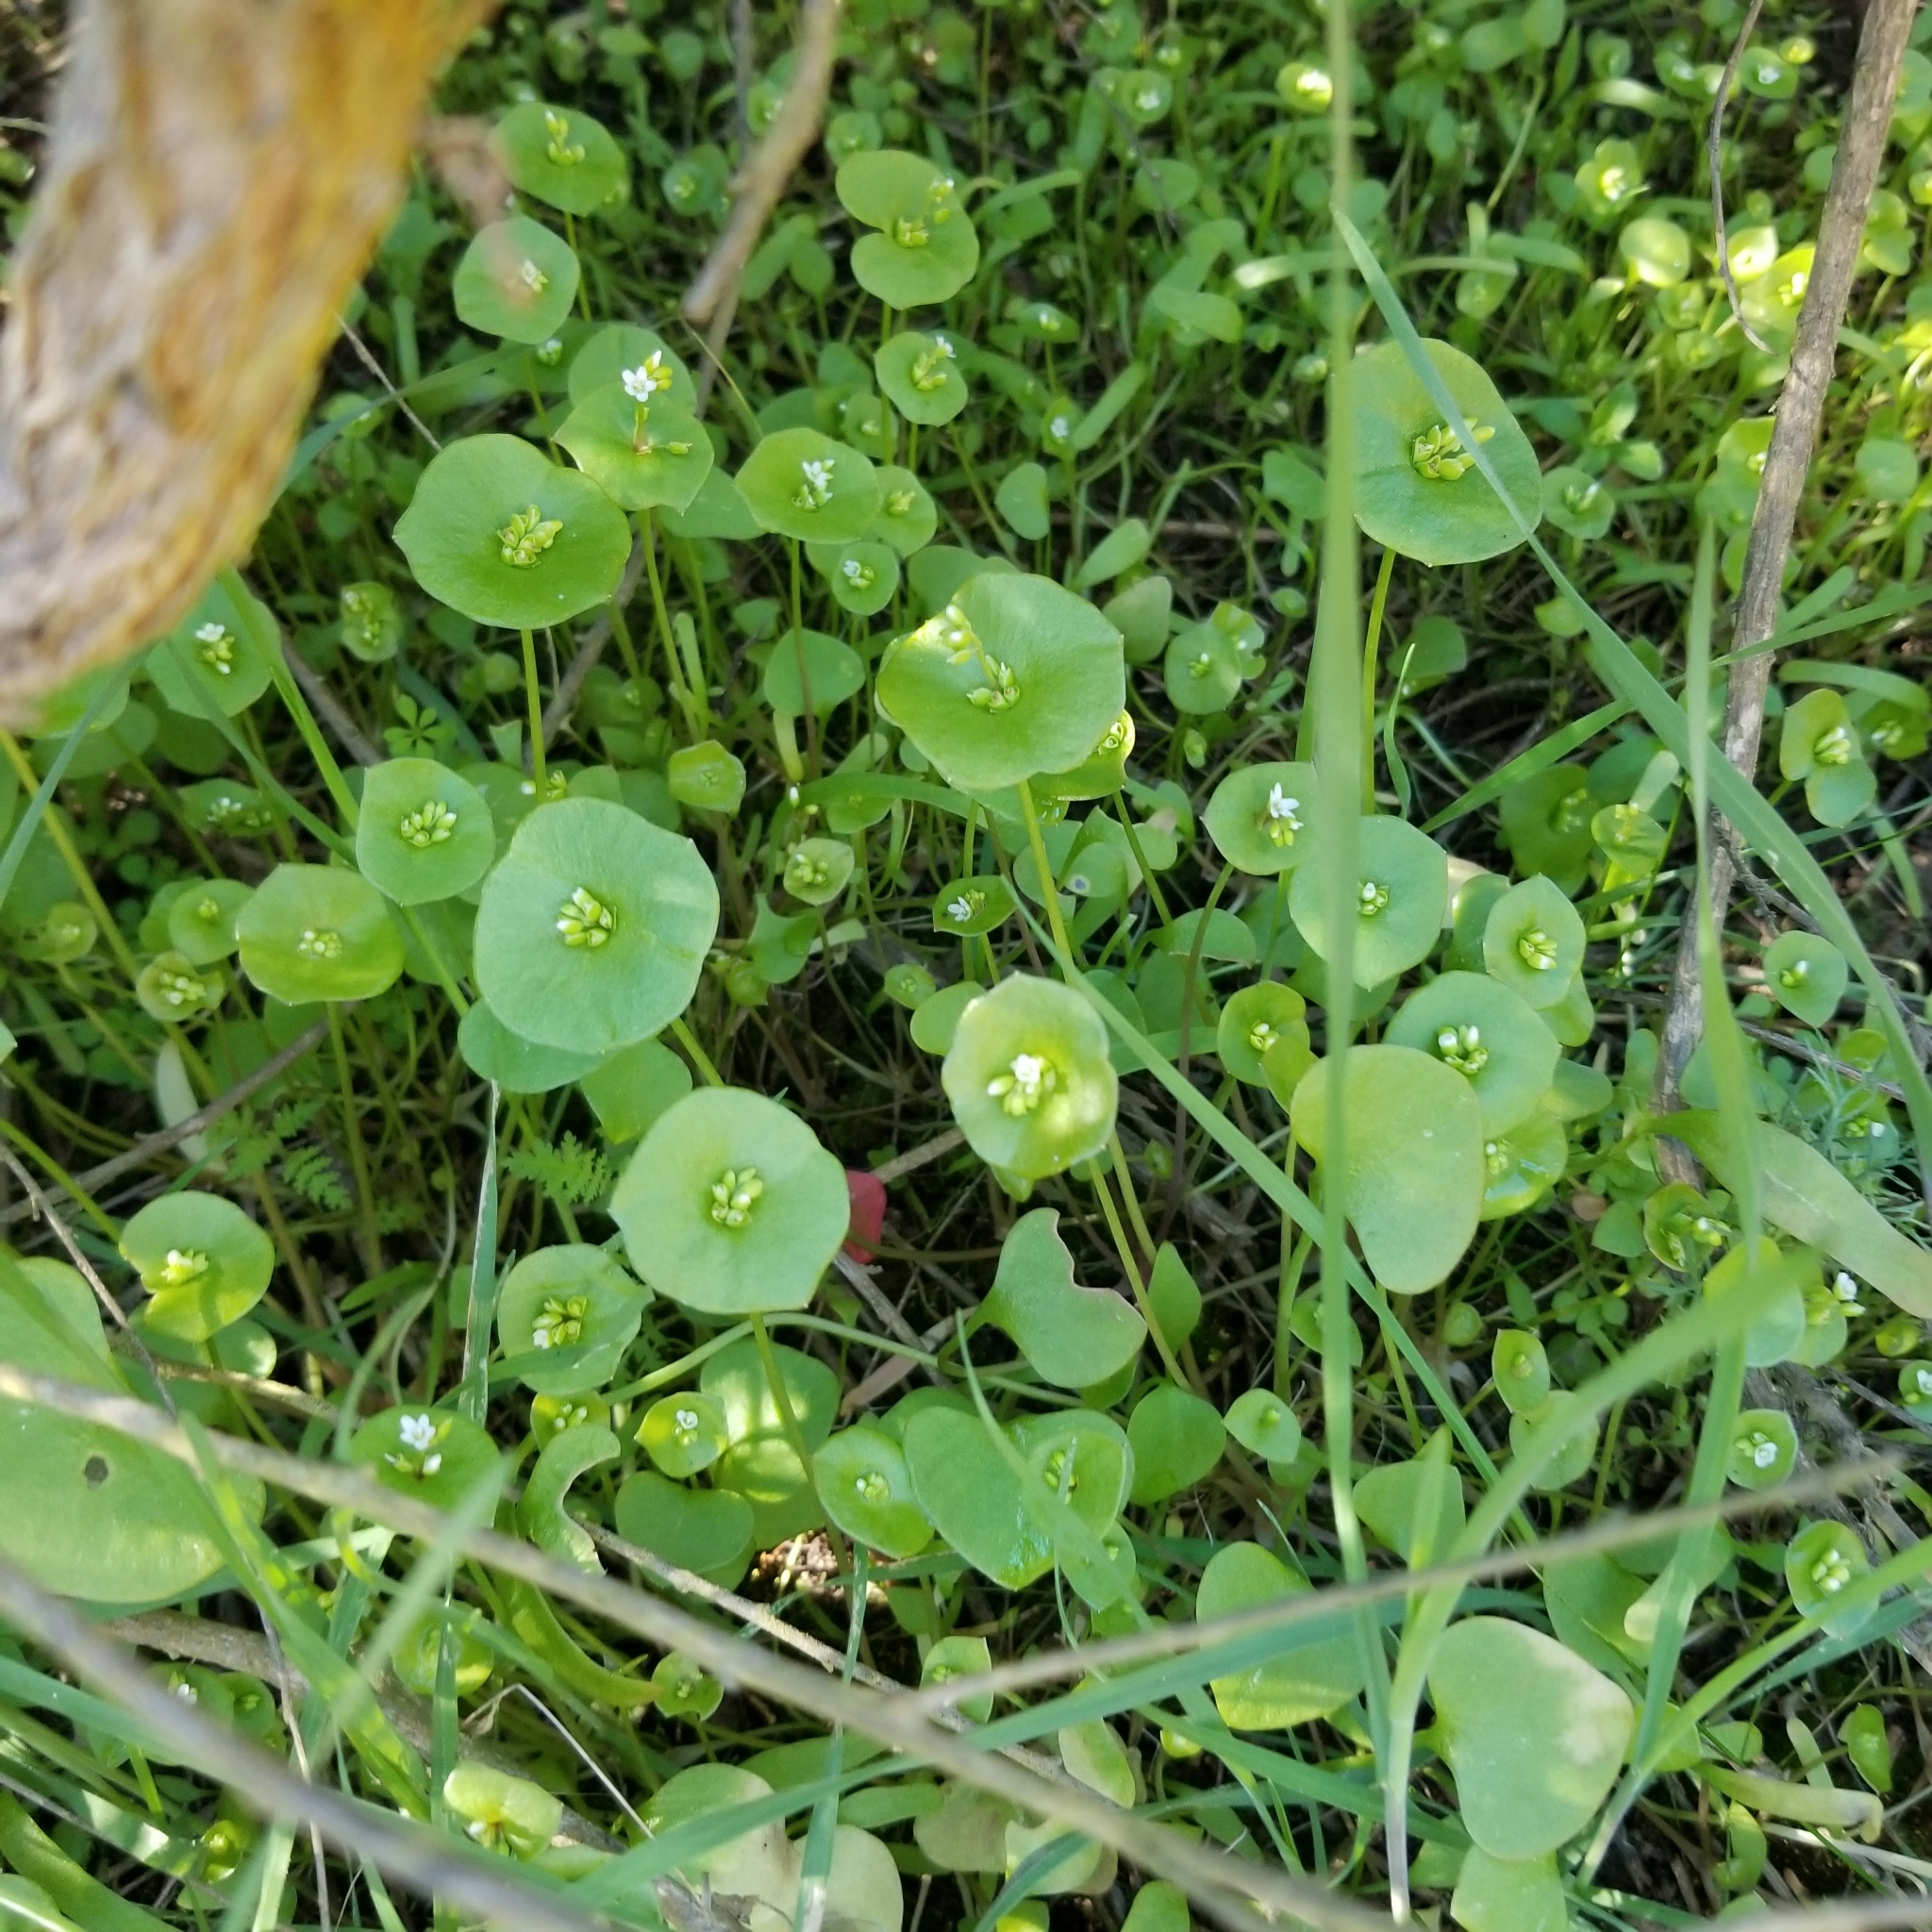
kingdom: Plantae
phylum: Tracheophyta
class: Magnoliopsida
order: Caryophyllales
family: Montiaceae
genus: Claytonia
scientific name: Claytonia perfoliata
